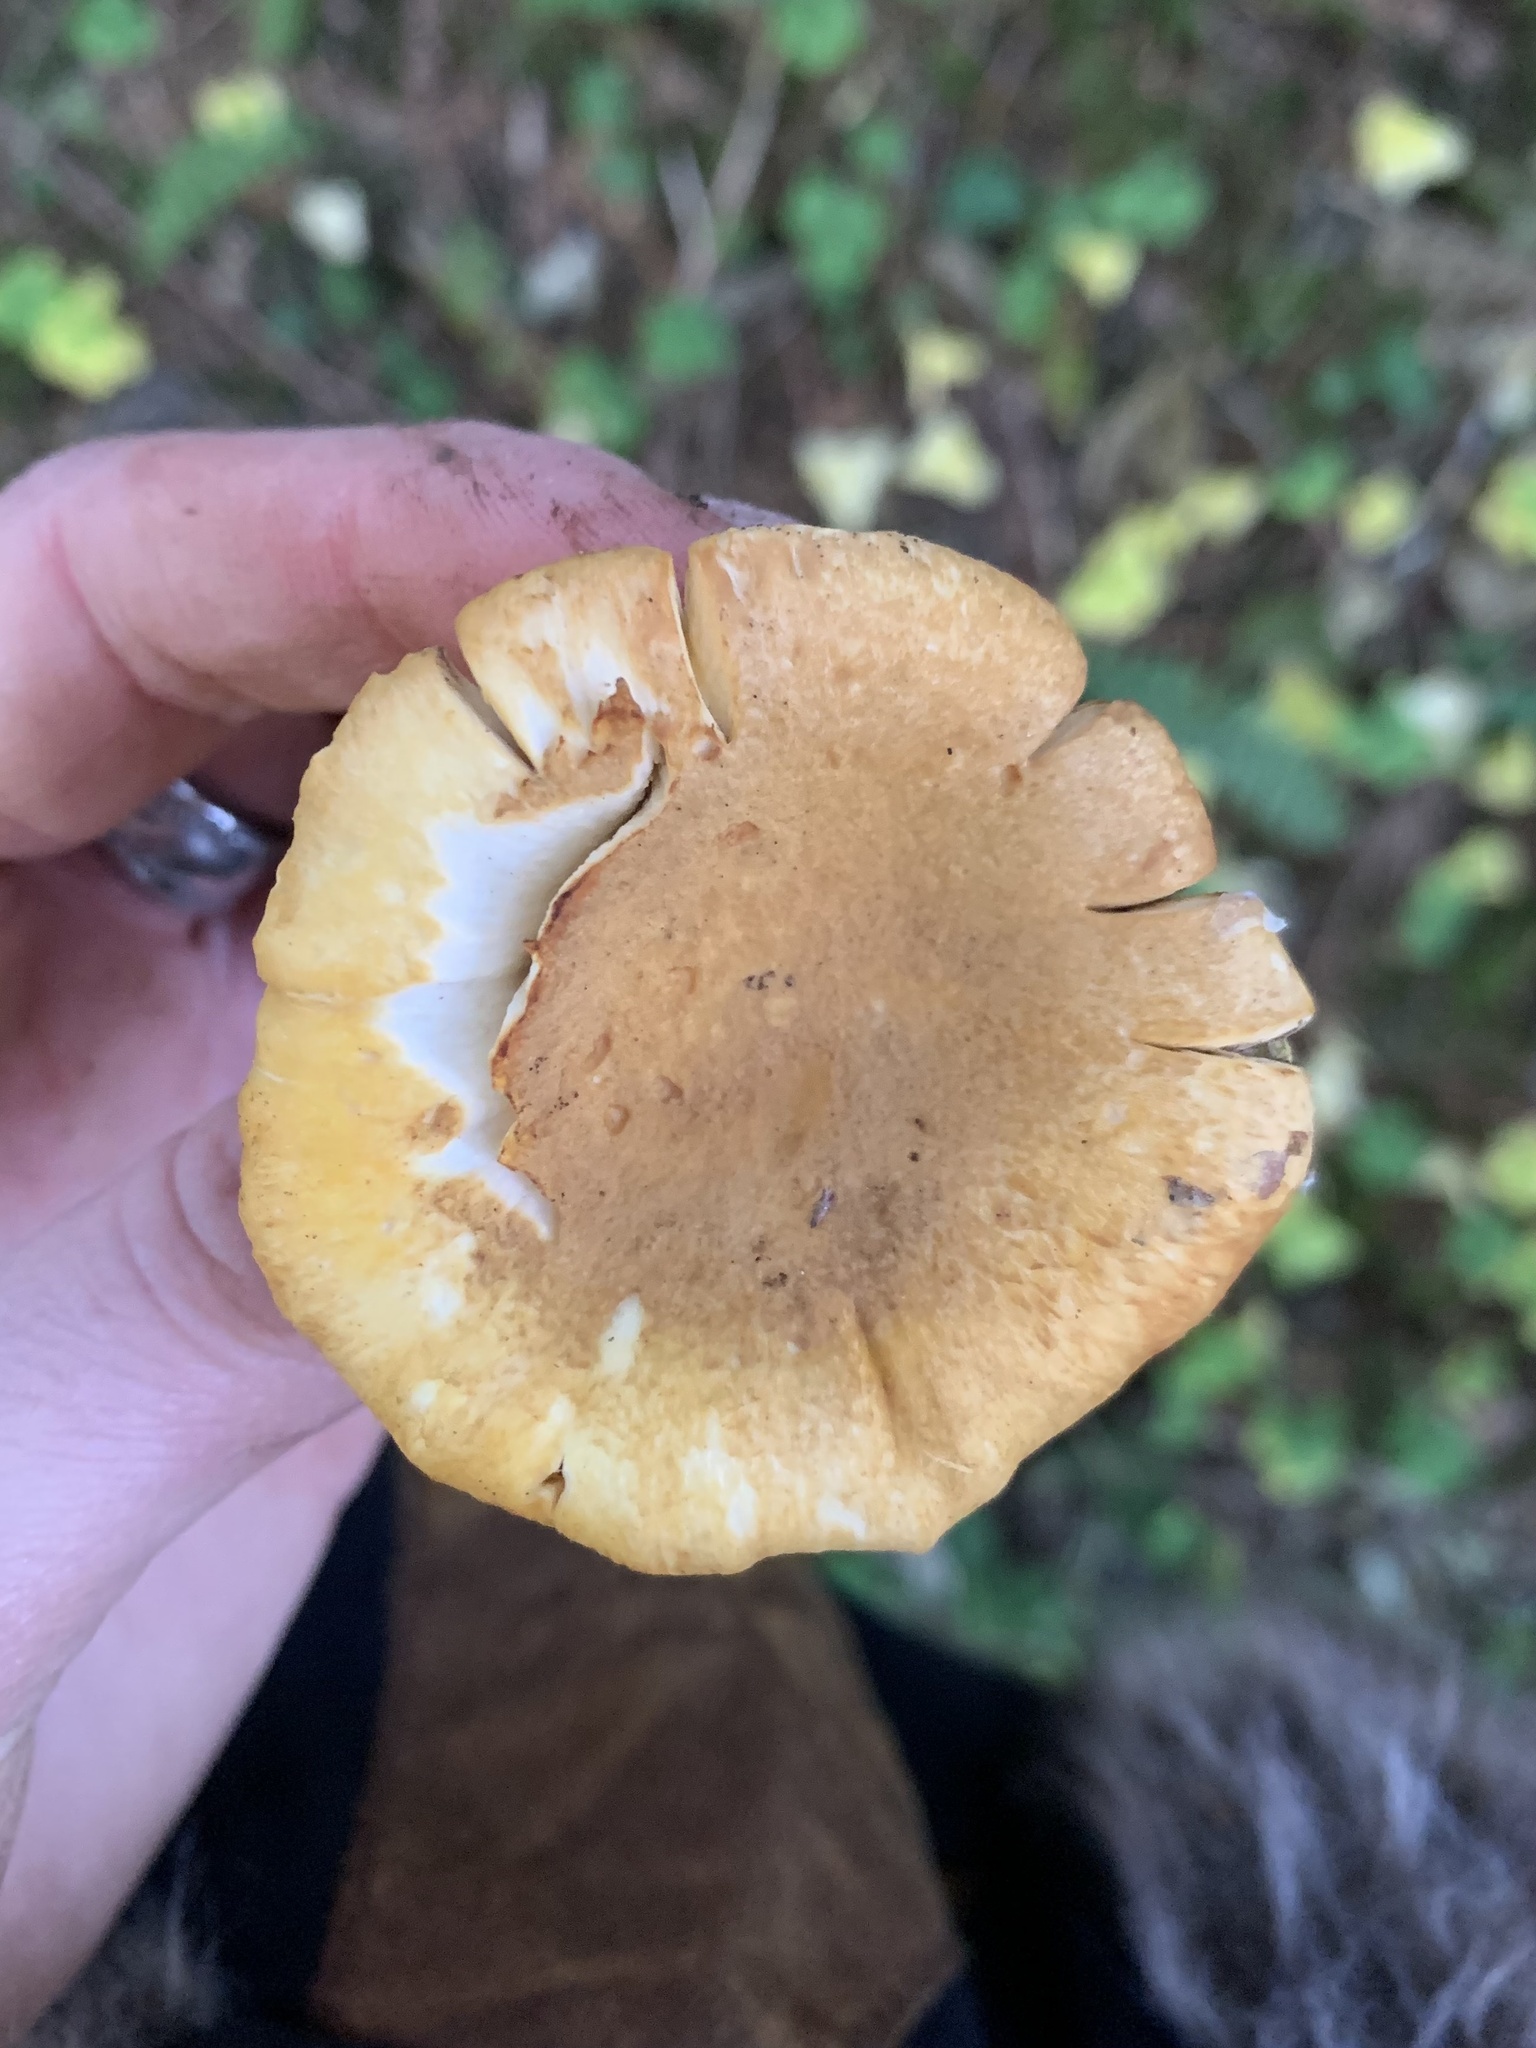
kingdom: Fungi
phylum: Basidiomycota
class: Agaricomycetes
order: Cantharellales
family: Hydnaceae
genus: Cantharellus
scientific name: Cantharellus formosus
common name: Pacific golden chanterelle
